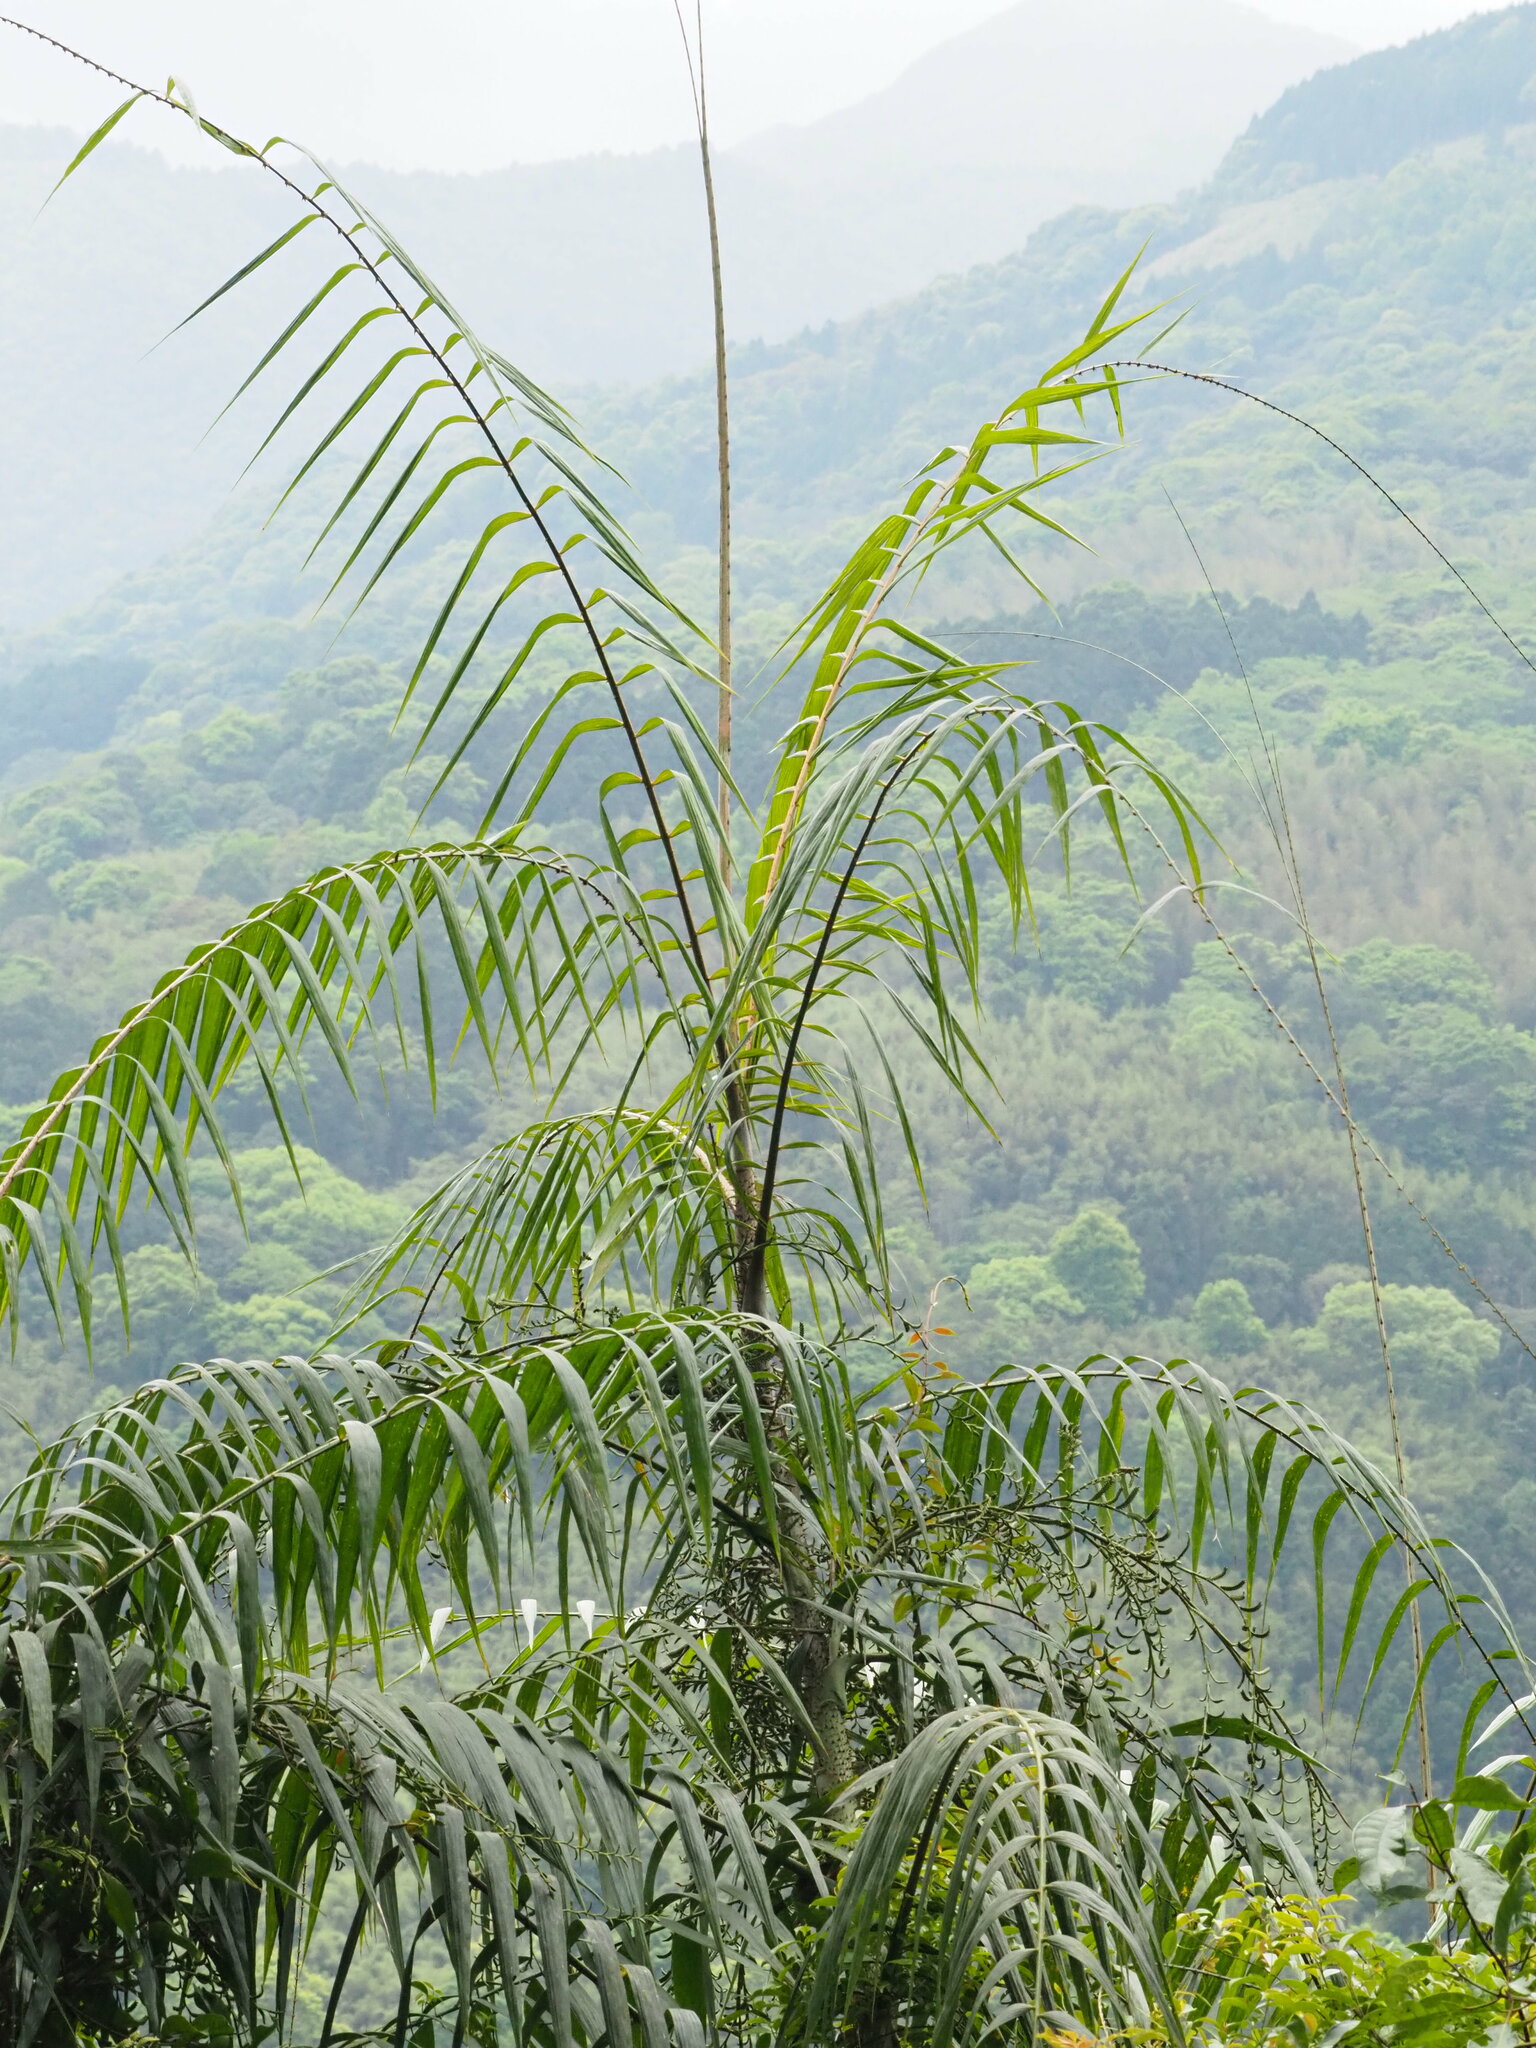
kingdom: Plantae
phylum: Tracheophyta
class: Liliopsida
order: Arecales
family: Arecaceae
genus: Calamus
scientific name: Calamus formosanus
